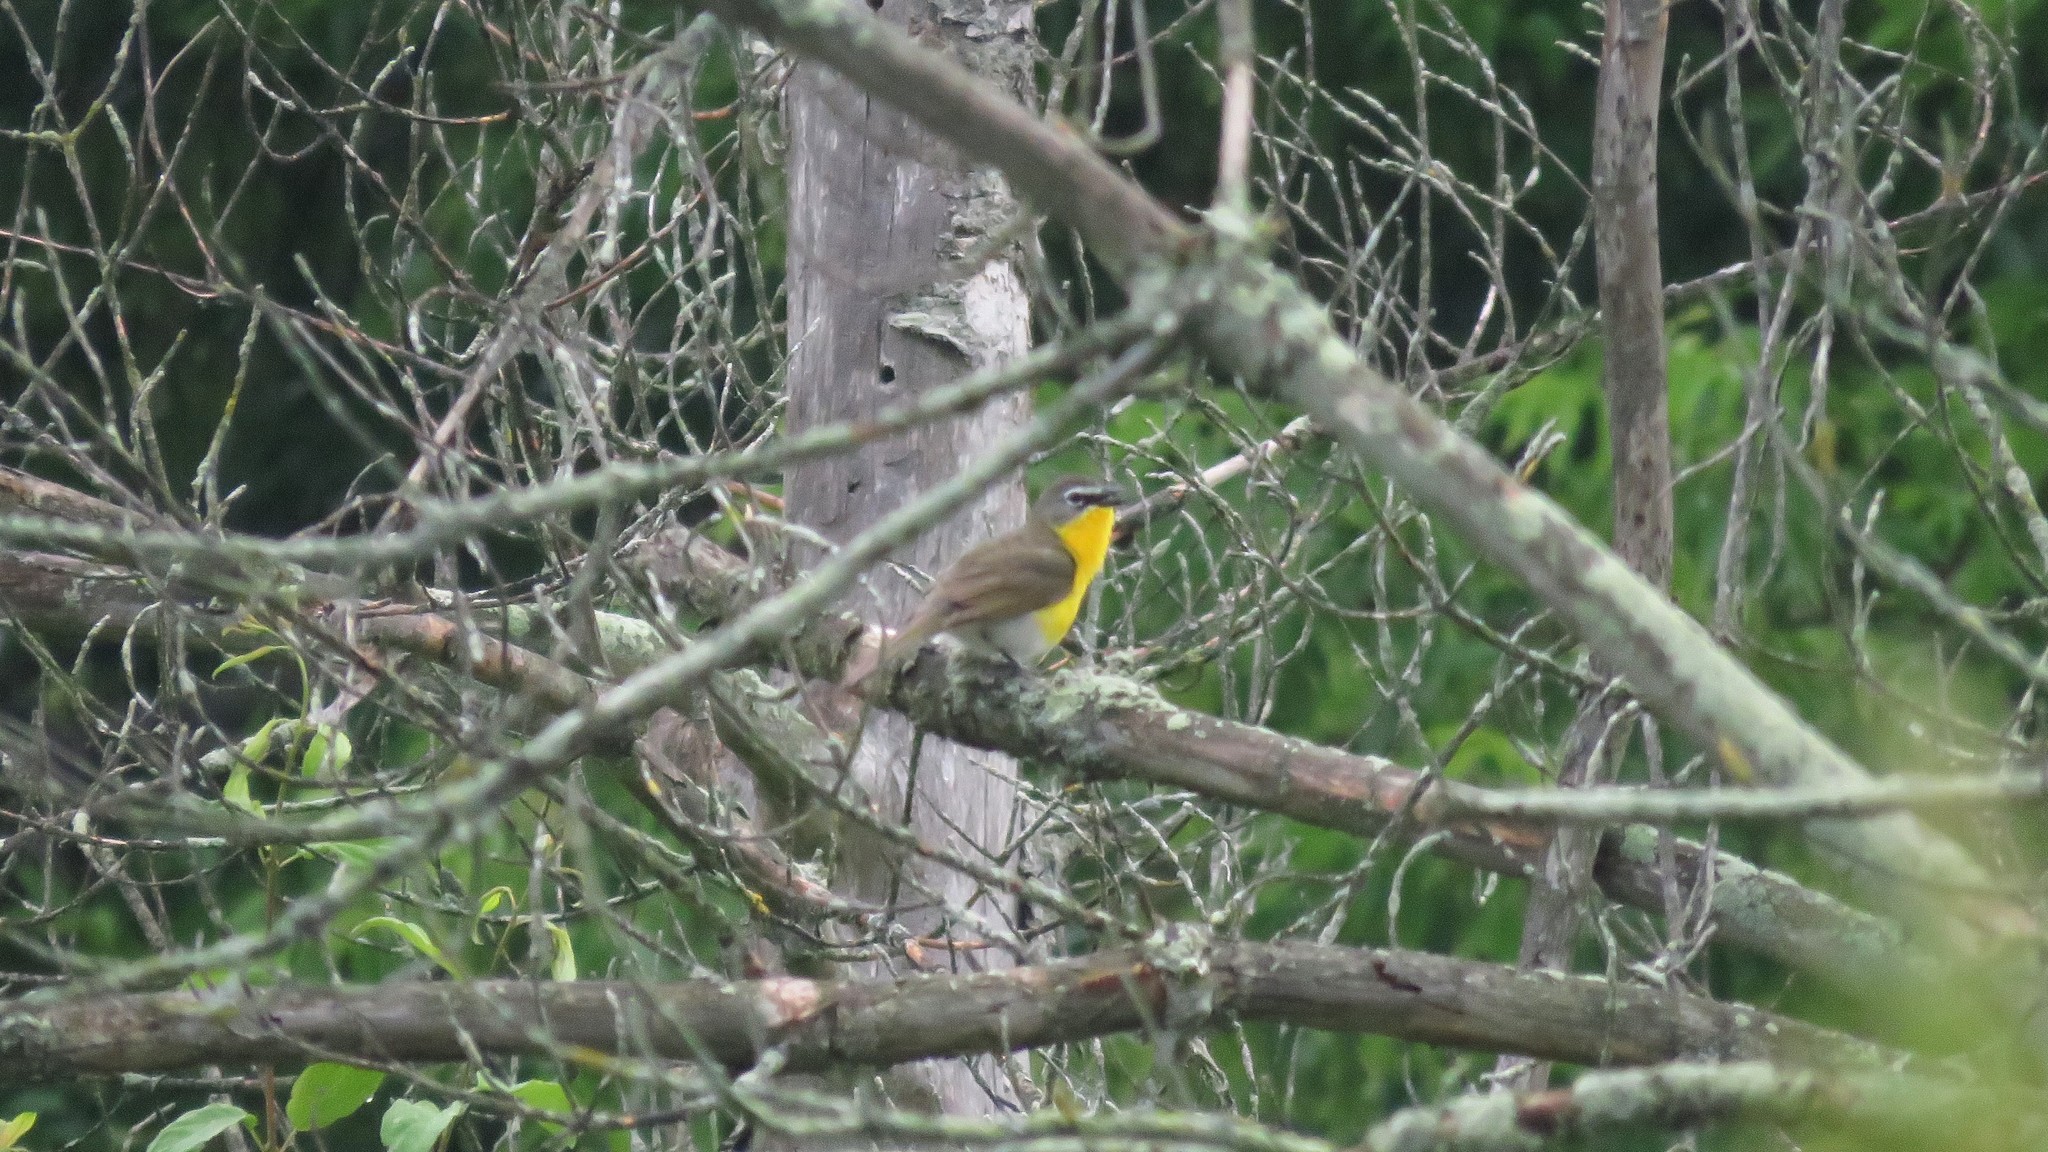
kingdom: Animalia
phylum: Chordata
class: Aves
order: Passeriformes
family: Parulidae
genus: Icteria
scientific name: Icteria virens
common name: Yellow-breasted chat
